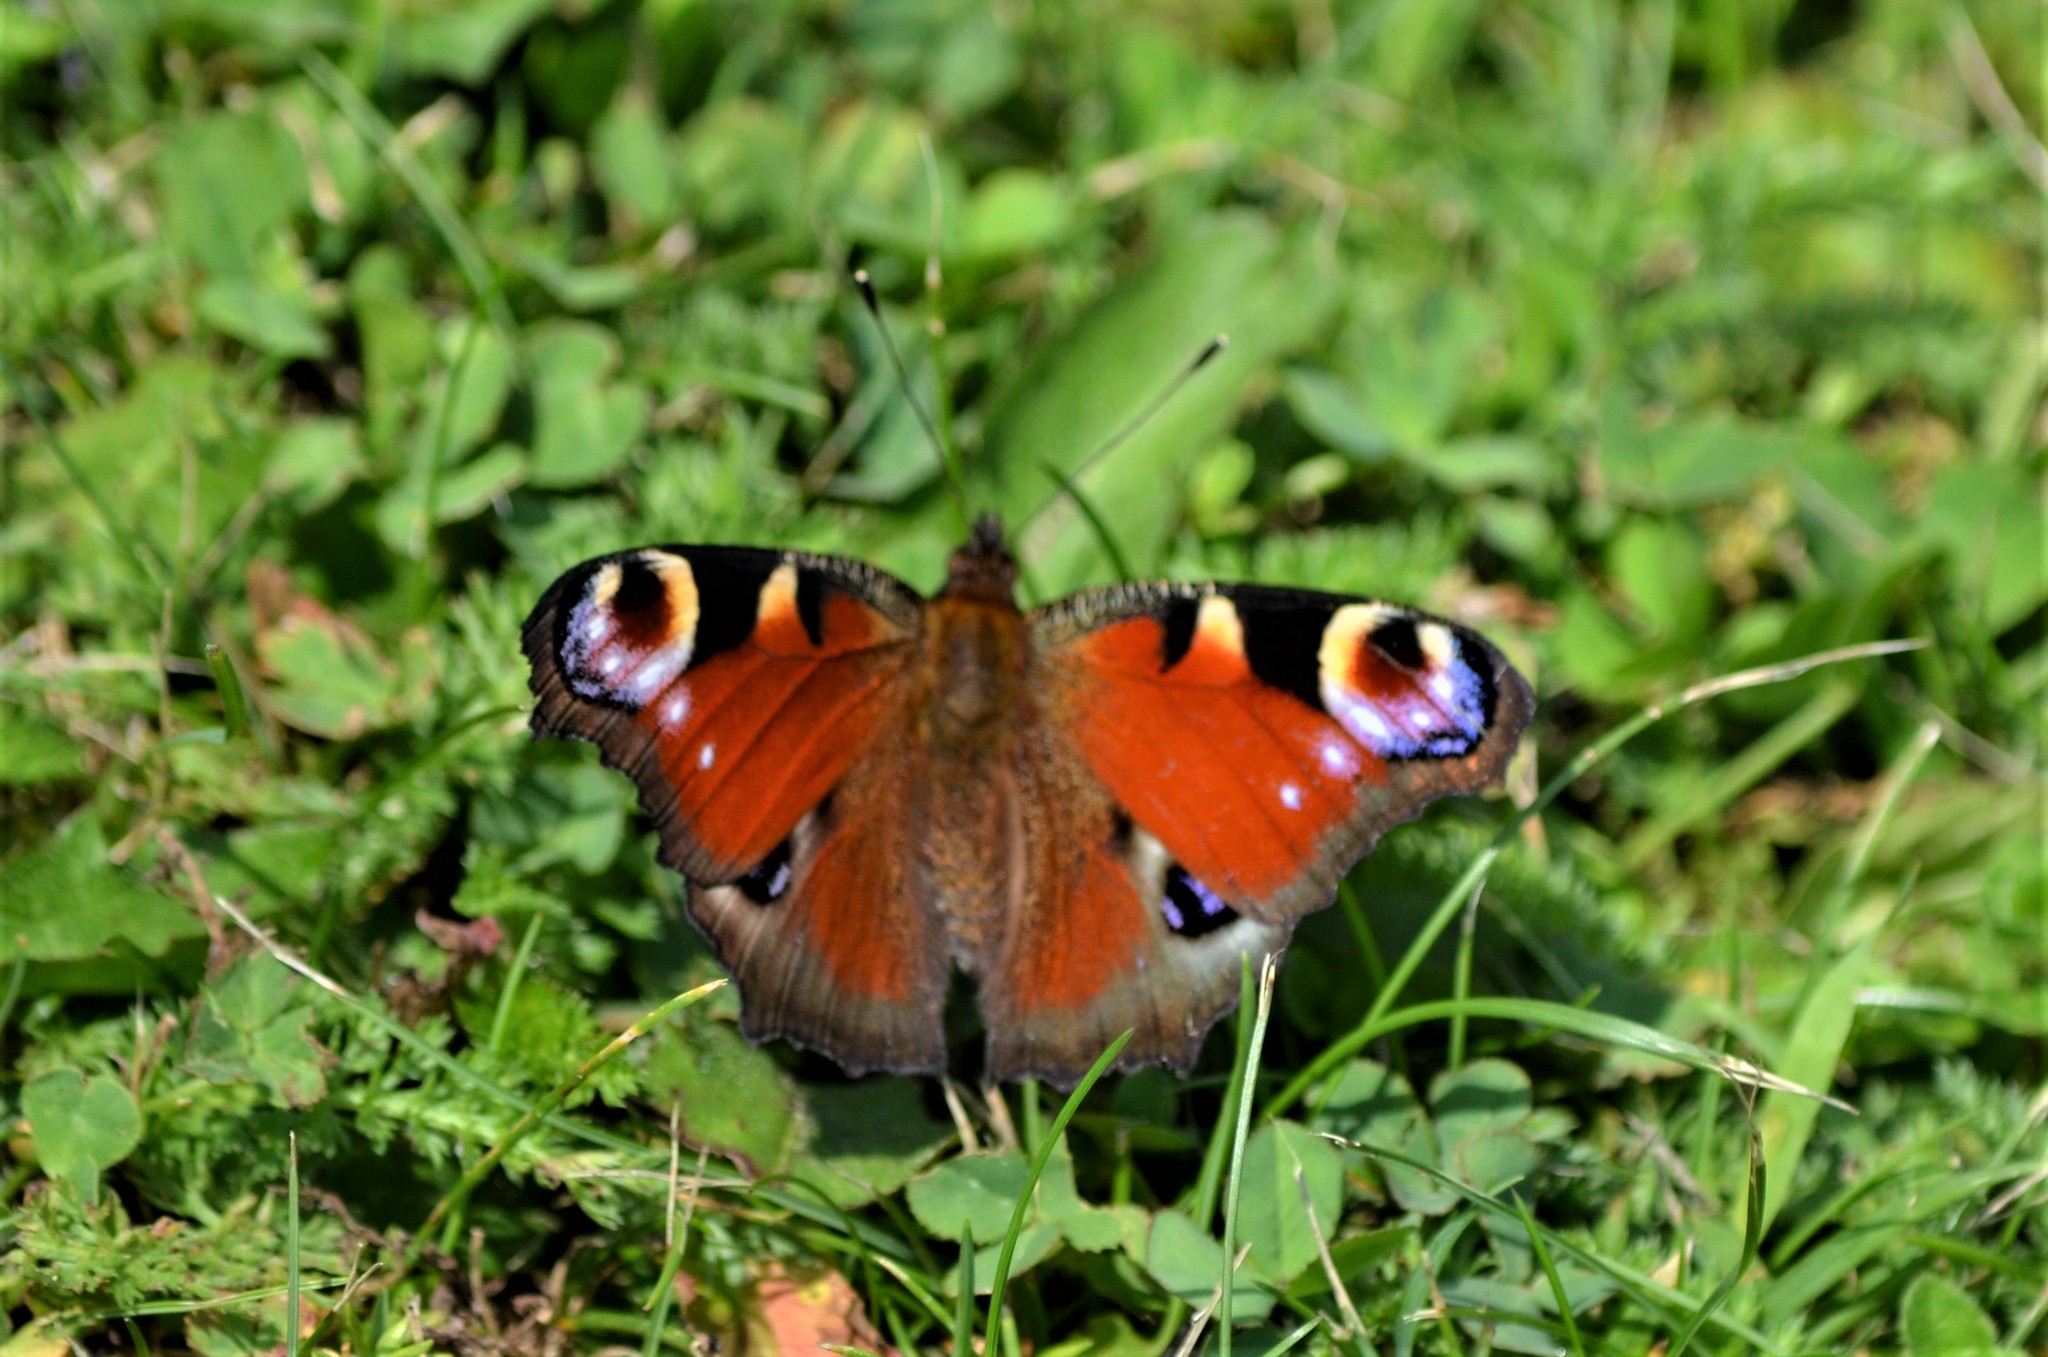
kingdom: Animalia
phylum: Arthropoda
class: Insecta
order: Lepidoptera
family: Nymphalidae
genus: Aglais
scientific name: Aglais io
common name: Peacock
